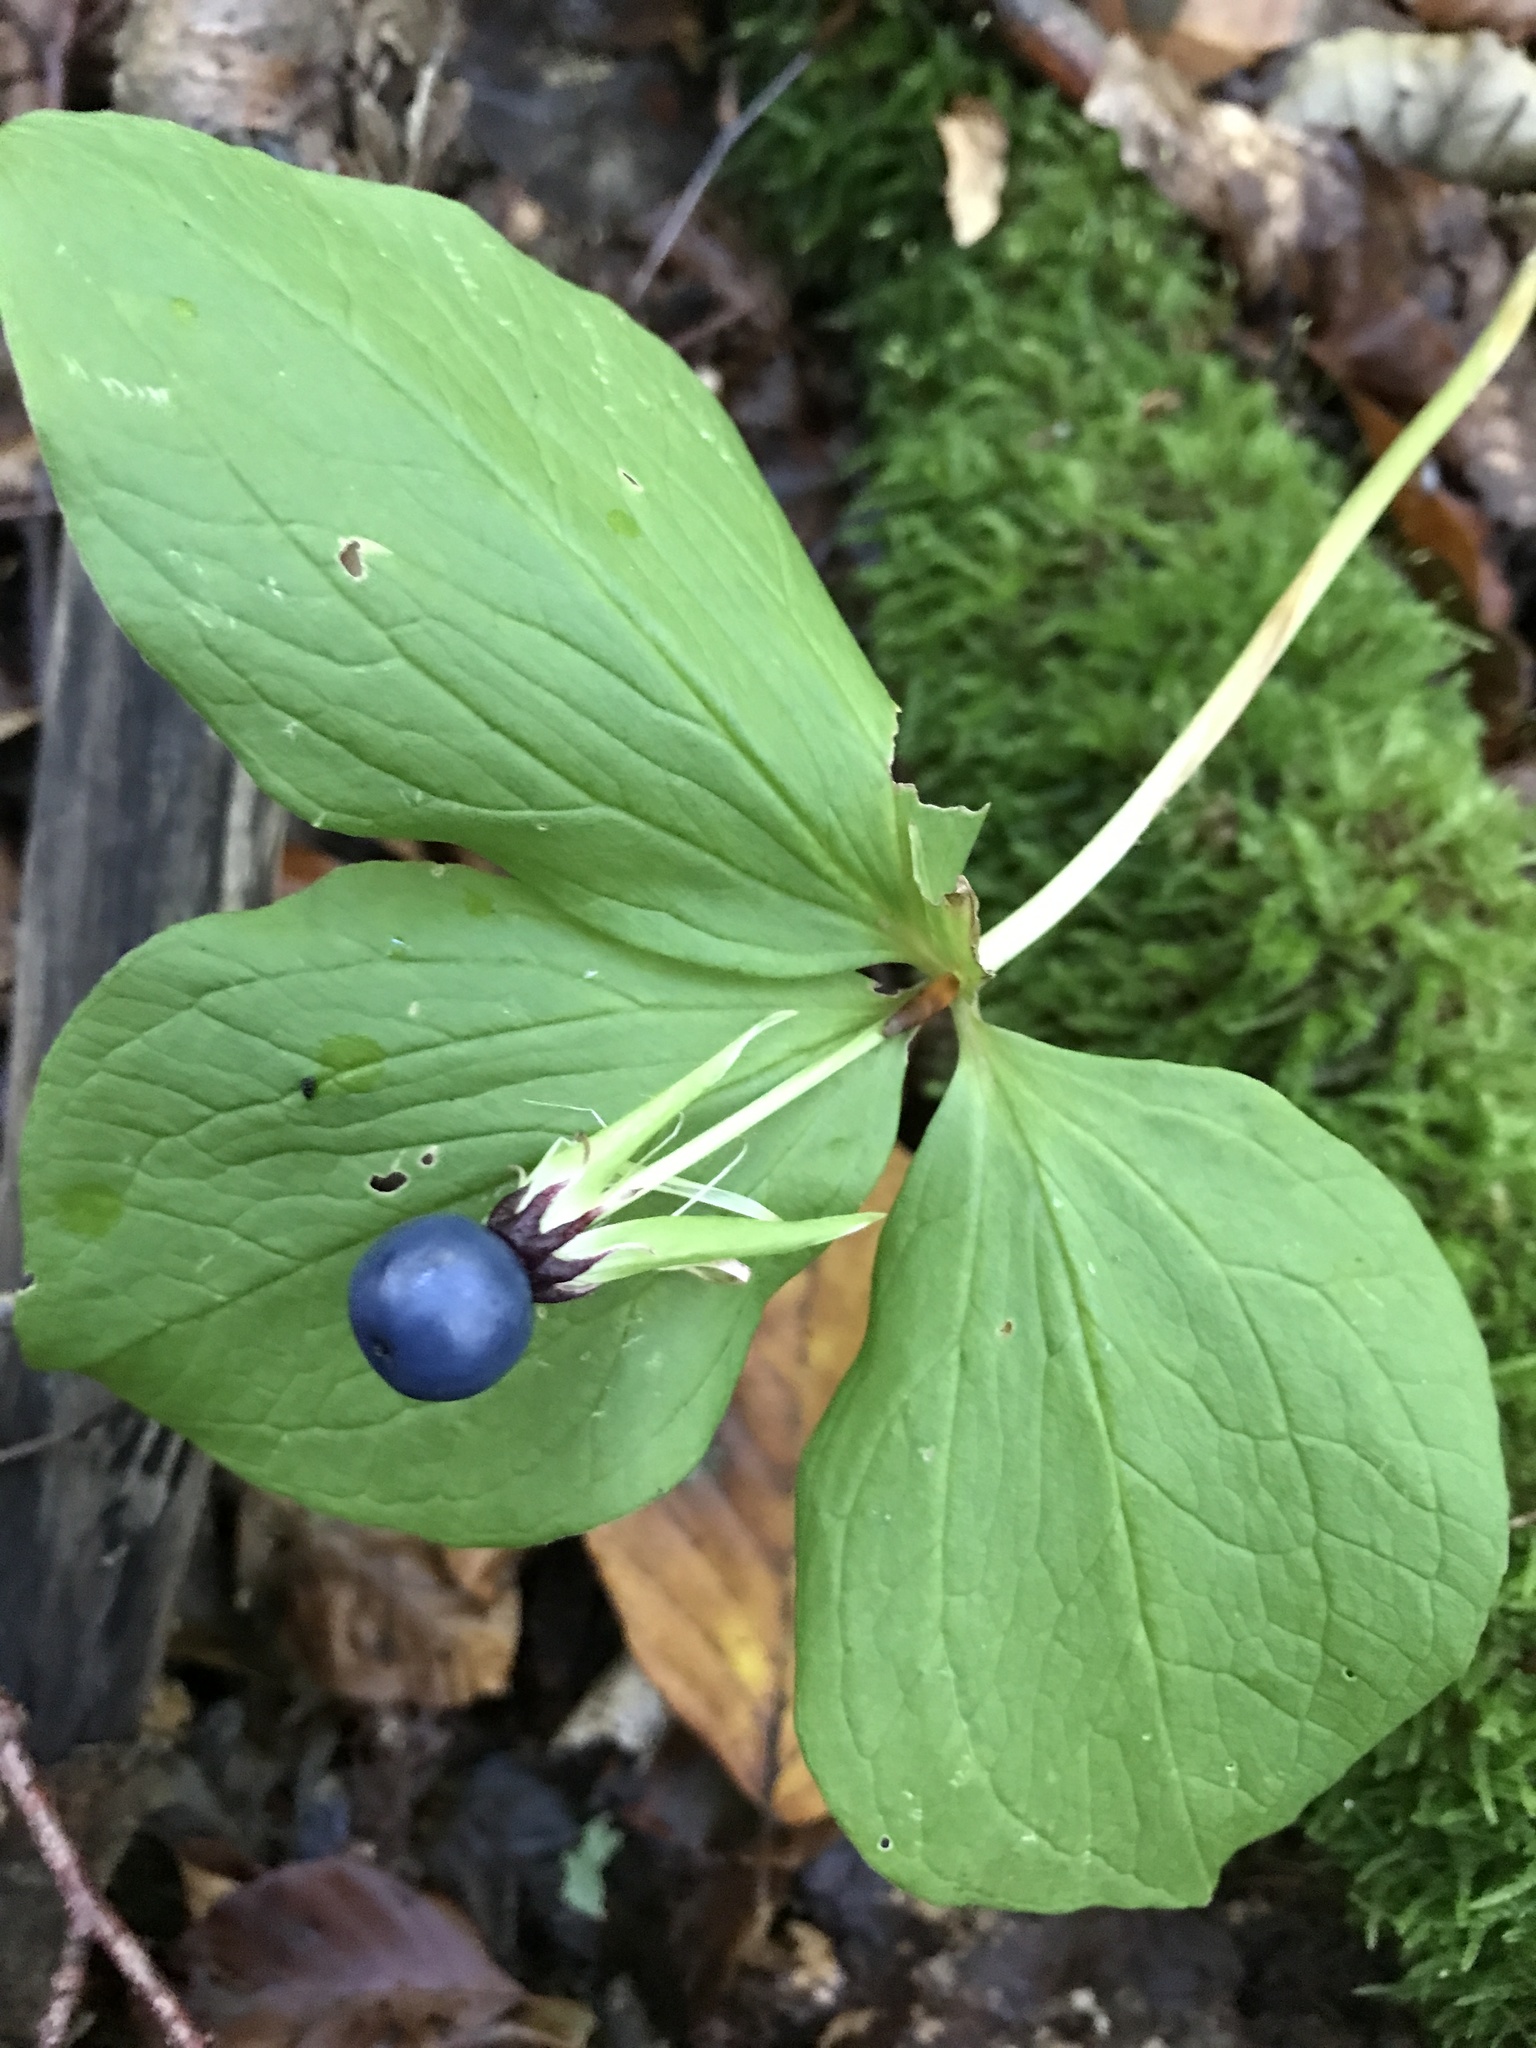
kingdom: Plantae
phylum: Tracheophyta
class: Liliopsida
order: Liliales
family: Melanthiaceae
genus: Paris
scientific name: Paris quadrifolia
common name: Herb-paris
